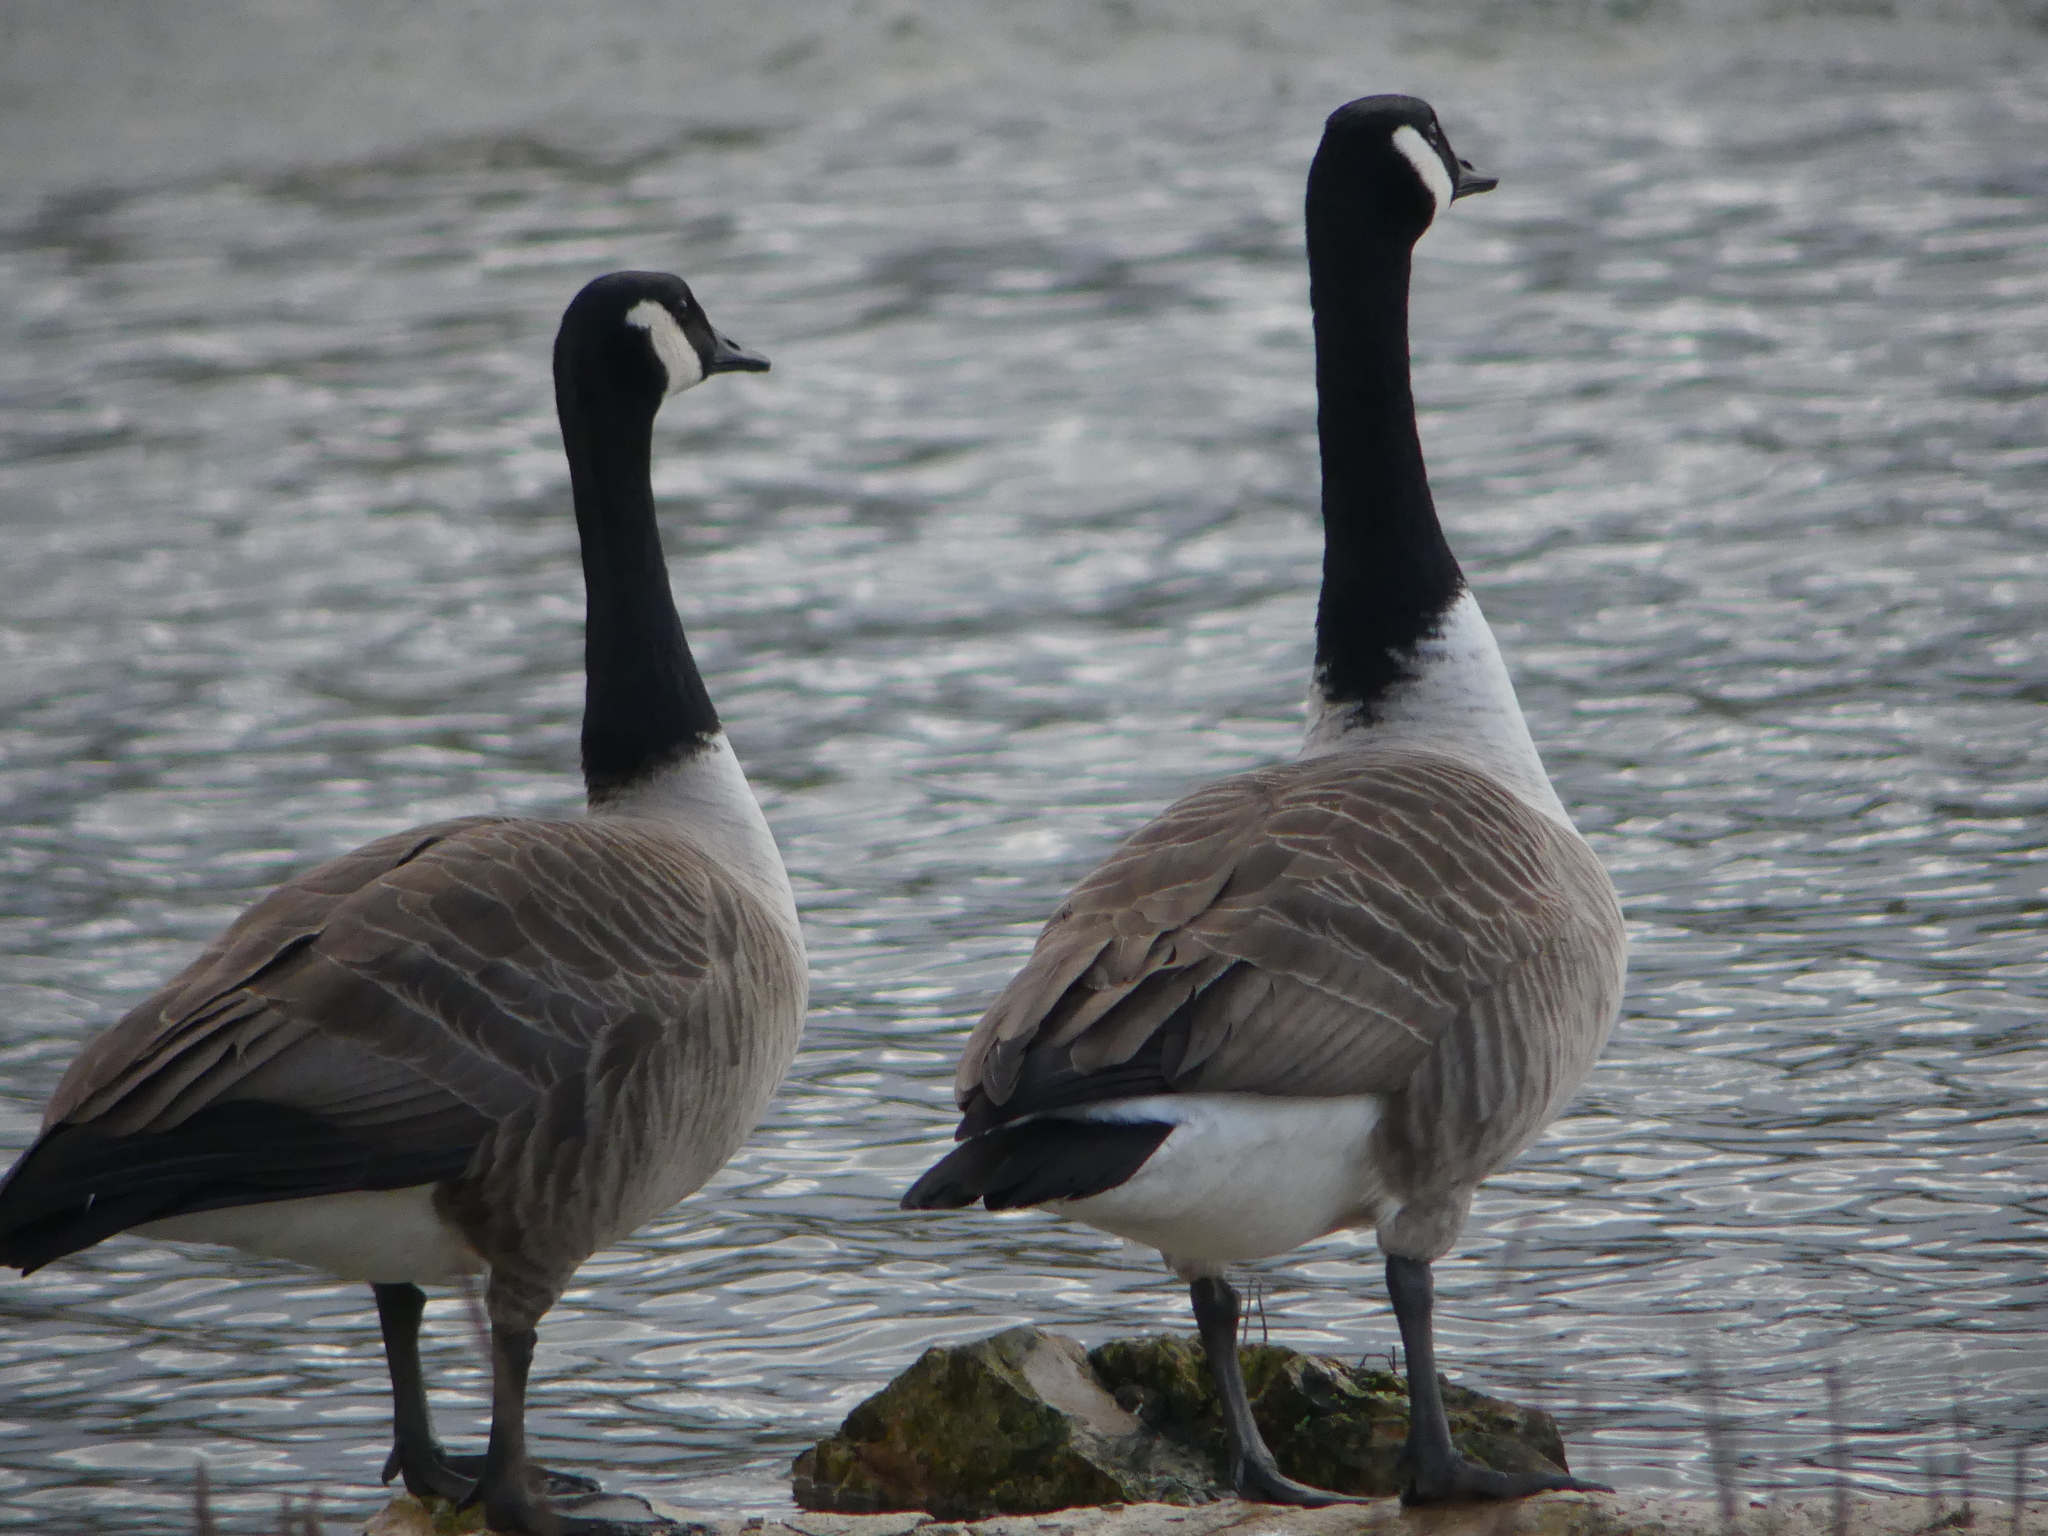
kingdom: Animalia
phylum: Chordata
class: Aves
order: Anseriformes
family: Anatidae
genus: Branta
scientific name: Branta canadensis
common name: Canada goose
